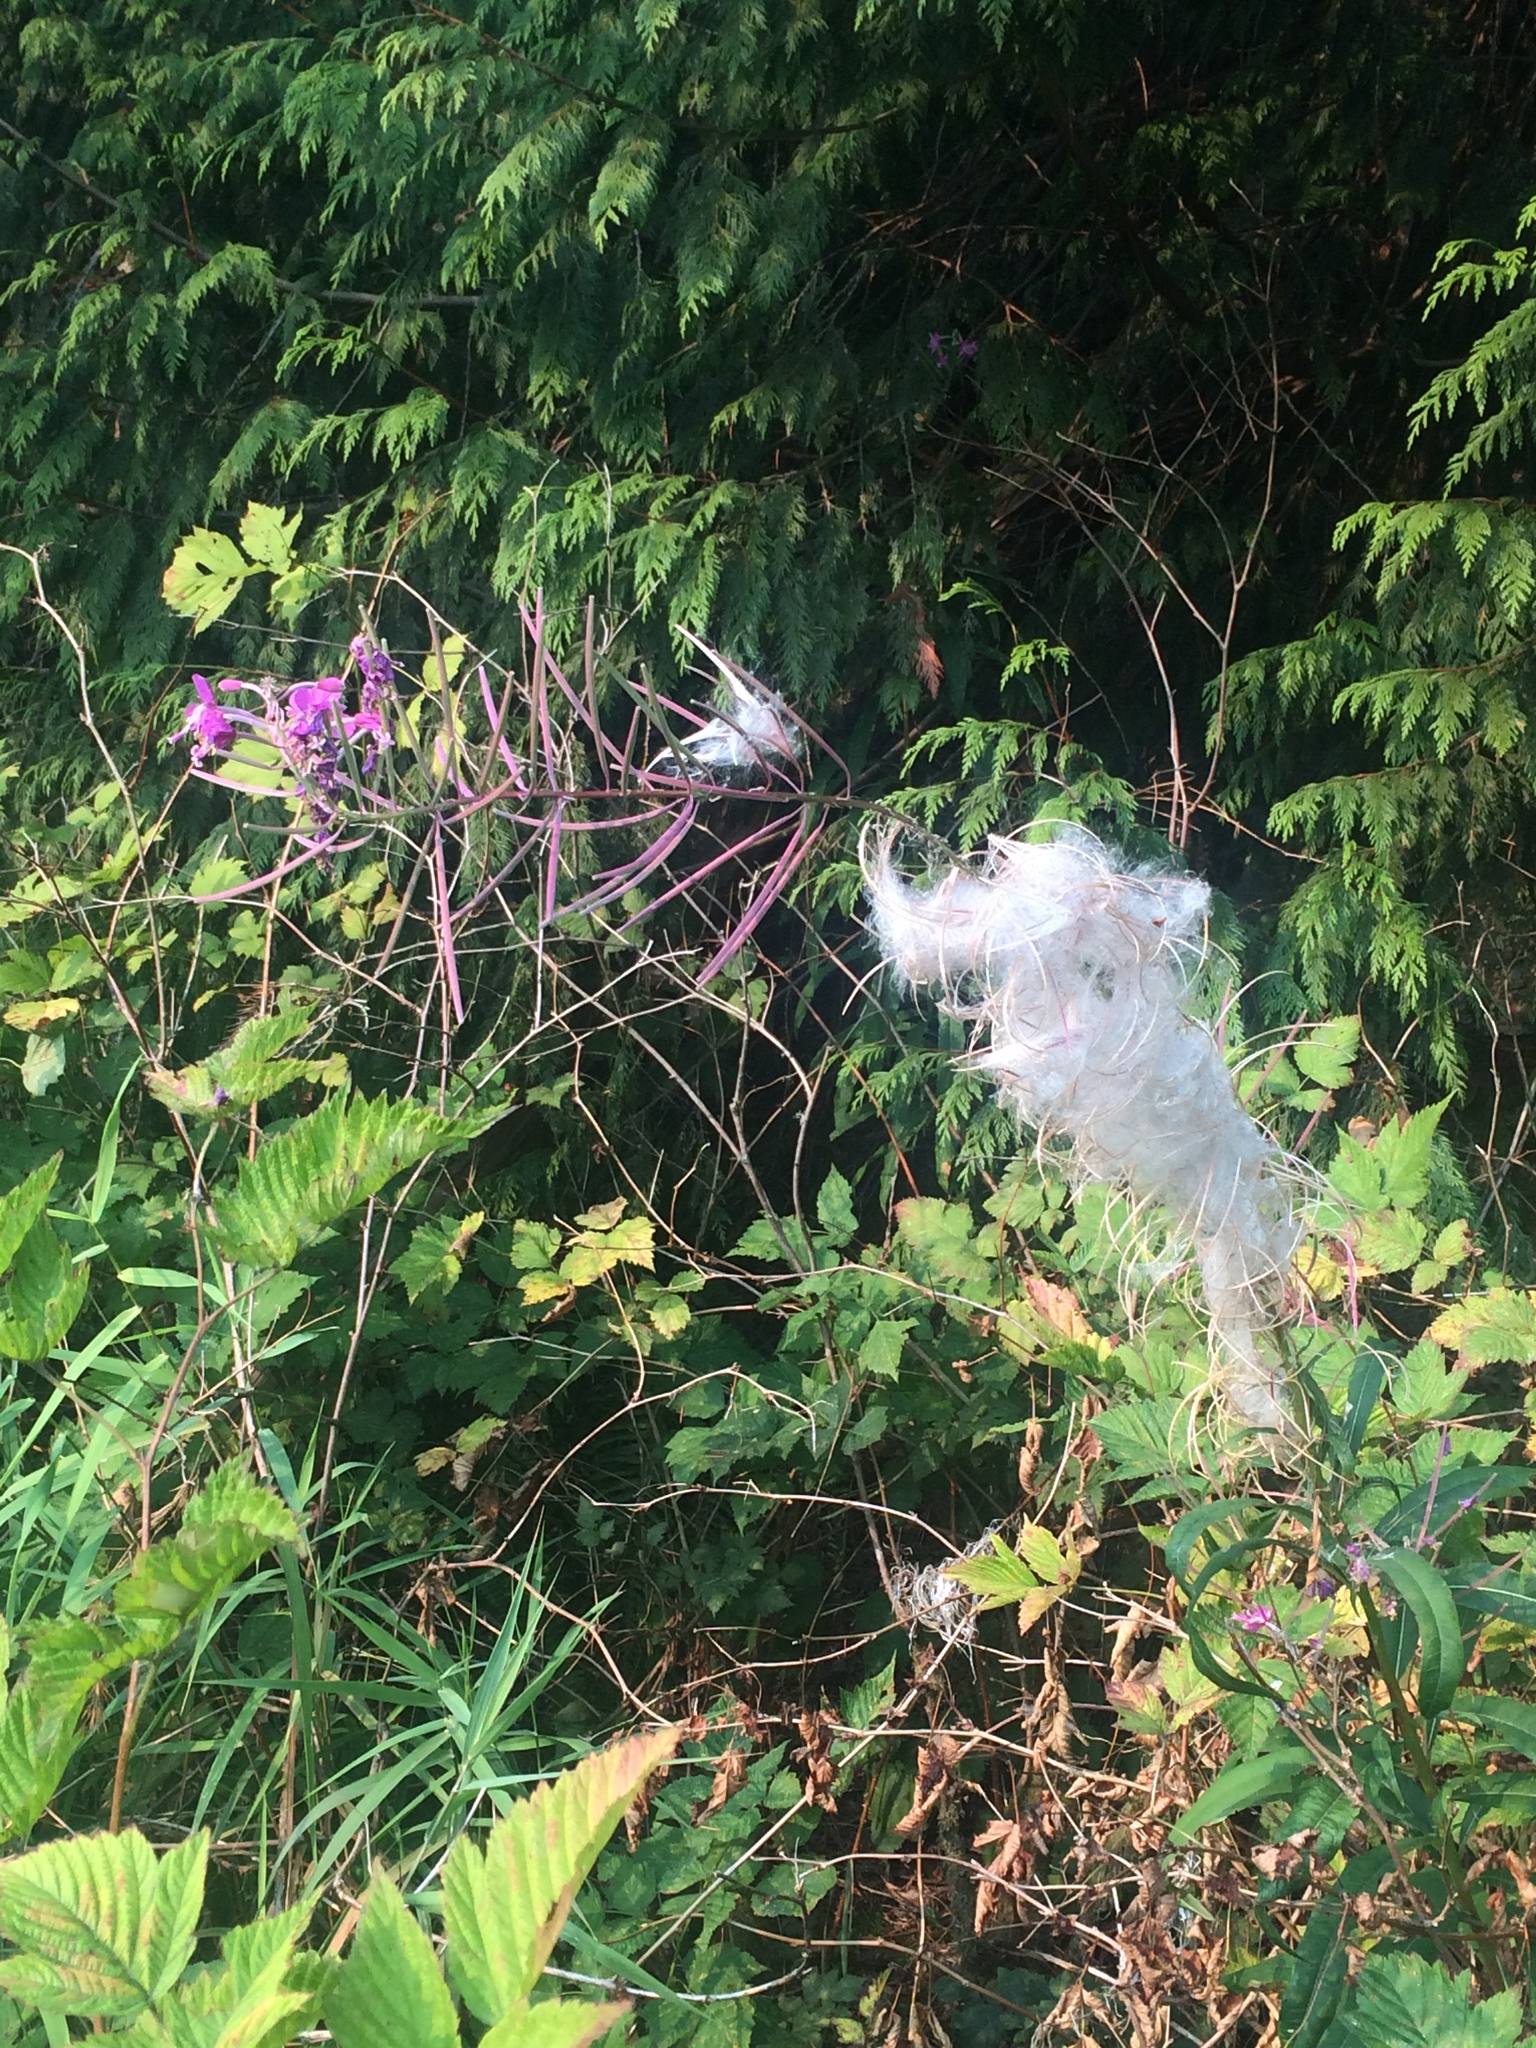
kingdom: Plantae
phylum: Tracheophyta
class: Magnoliopsida
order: Myrtales
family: Onagraceae
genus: Chamaenerion
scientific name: Chamaenerion angustifolium
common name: Fireweed
